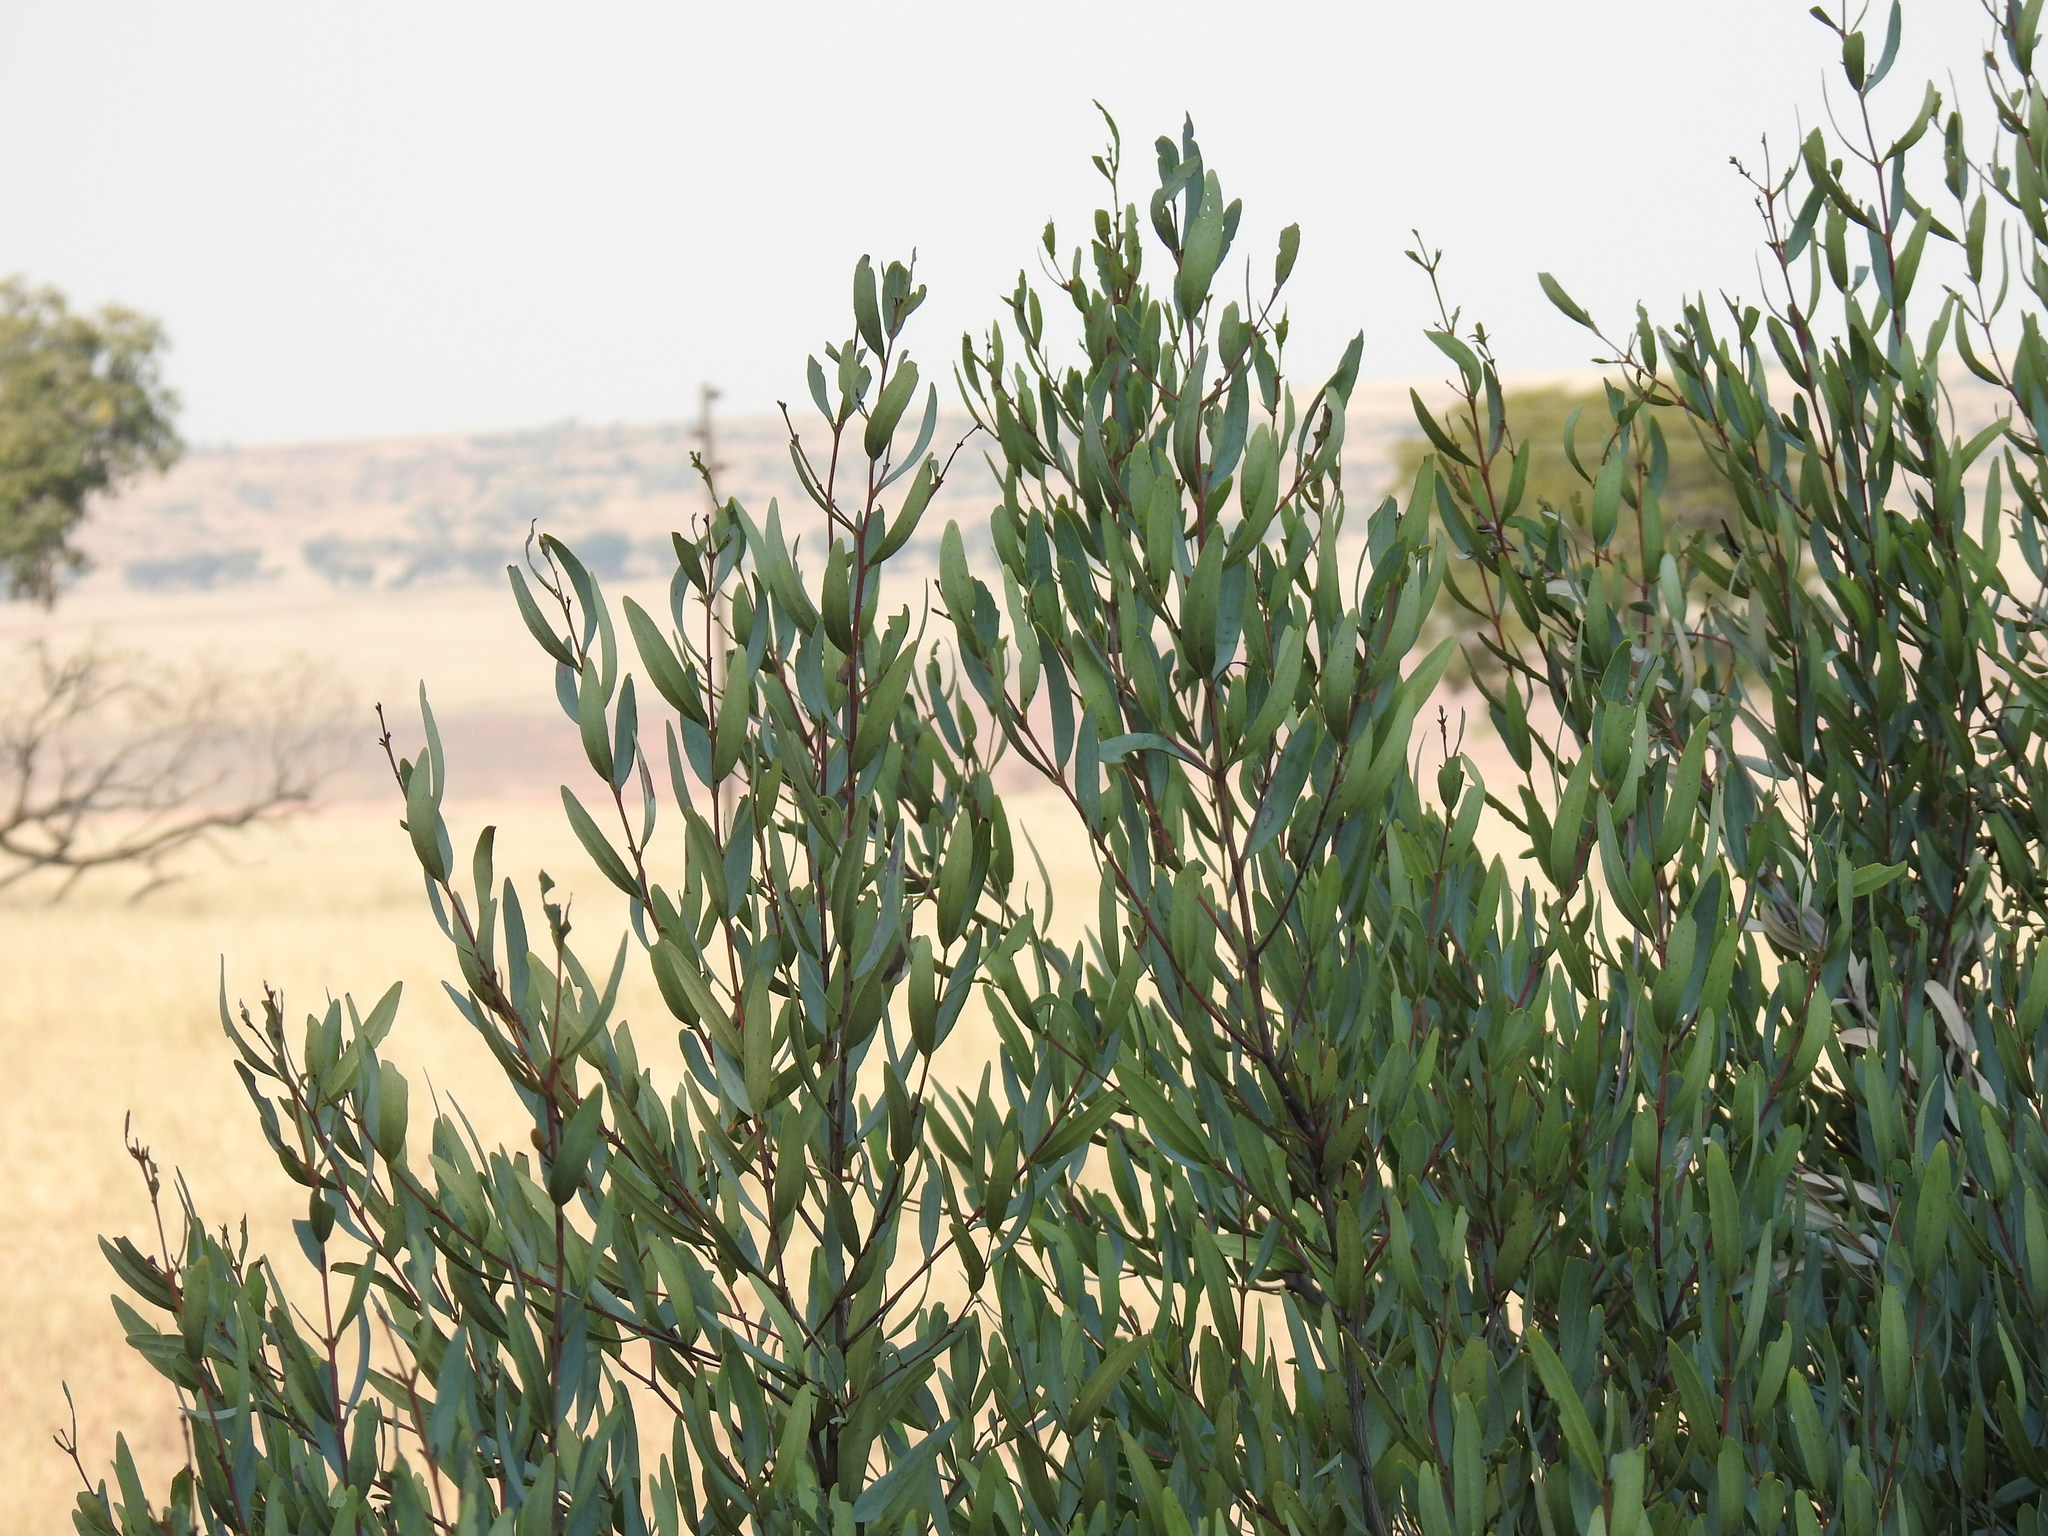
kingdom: Plantae
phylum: Tracheophyta
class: Magnoliopsida
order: Ericales
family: Ebenaceae
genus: Euclea
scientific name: Euclea crispa
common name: Blue guarri
